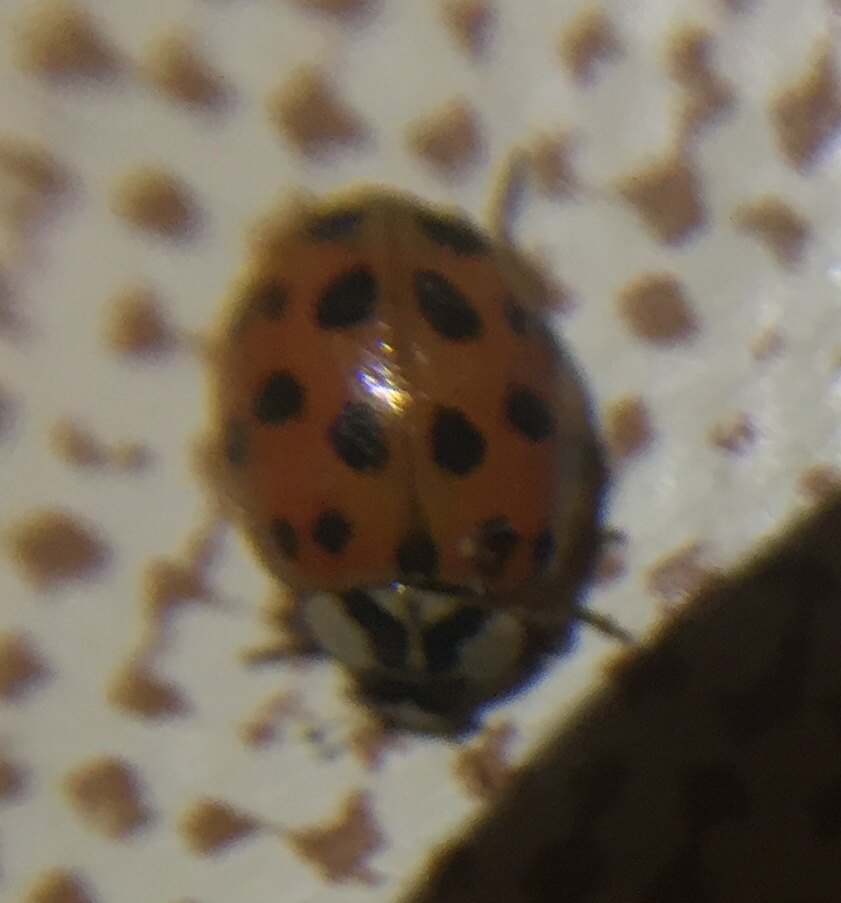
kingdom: Animalia
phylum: Arthropoda
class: Insecta
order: Coleoptera
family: Coccinellidae
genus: Harmonia
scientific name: Harmonia axyridis
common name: Harlequin ladybird
